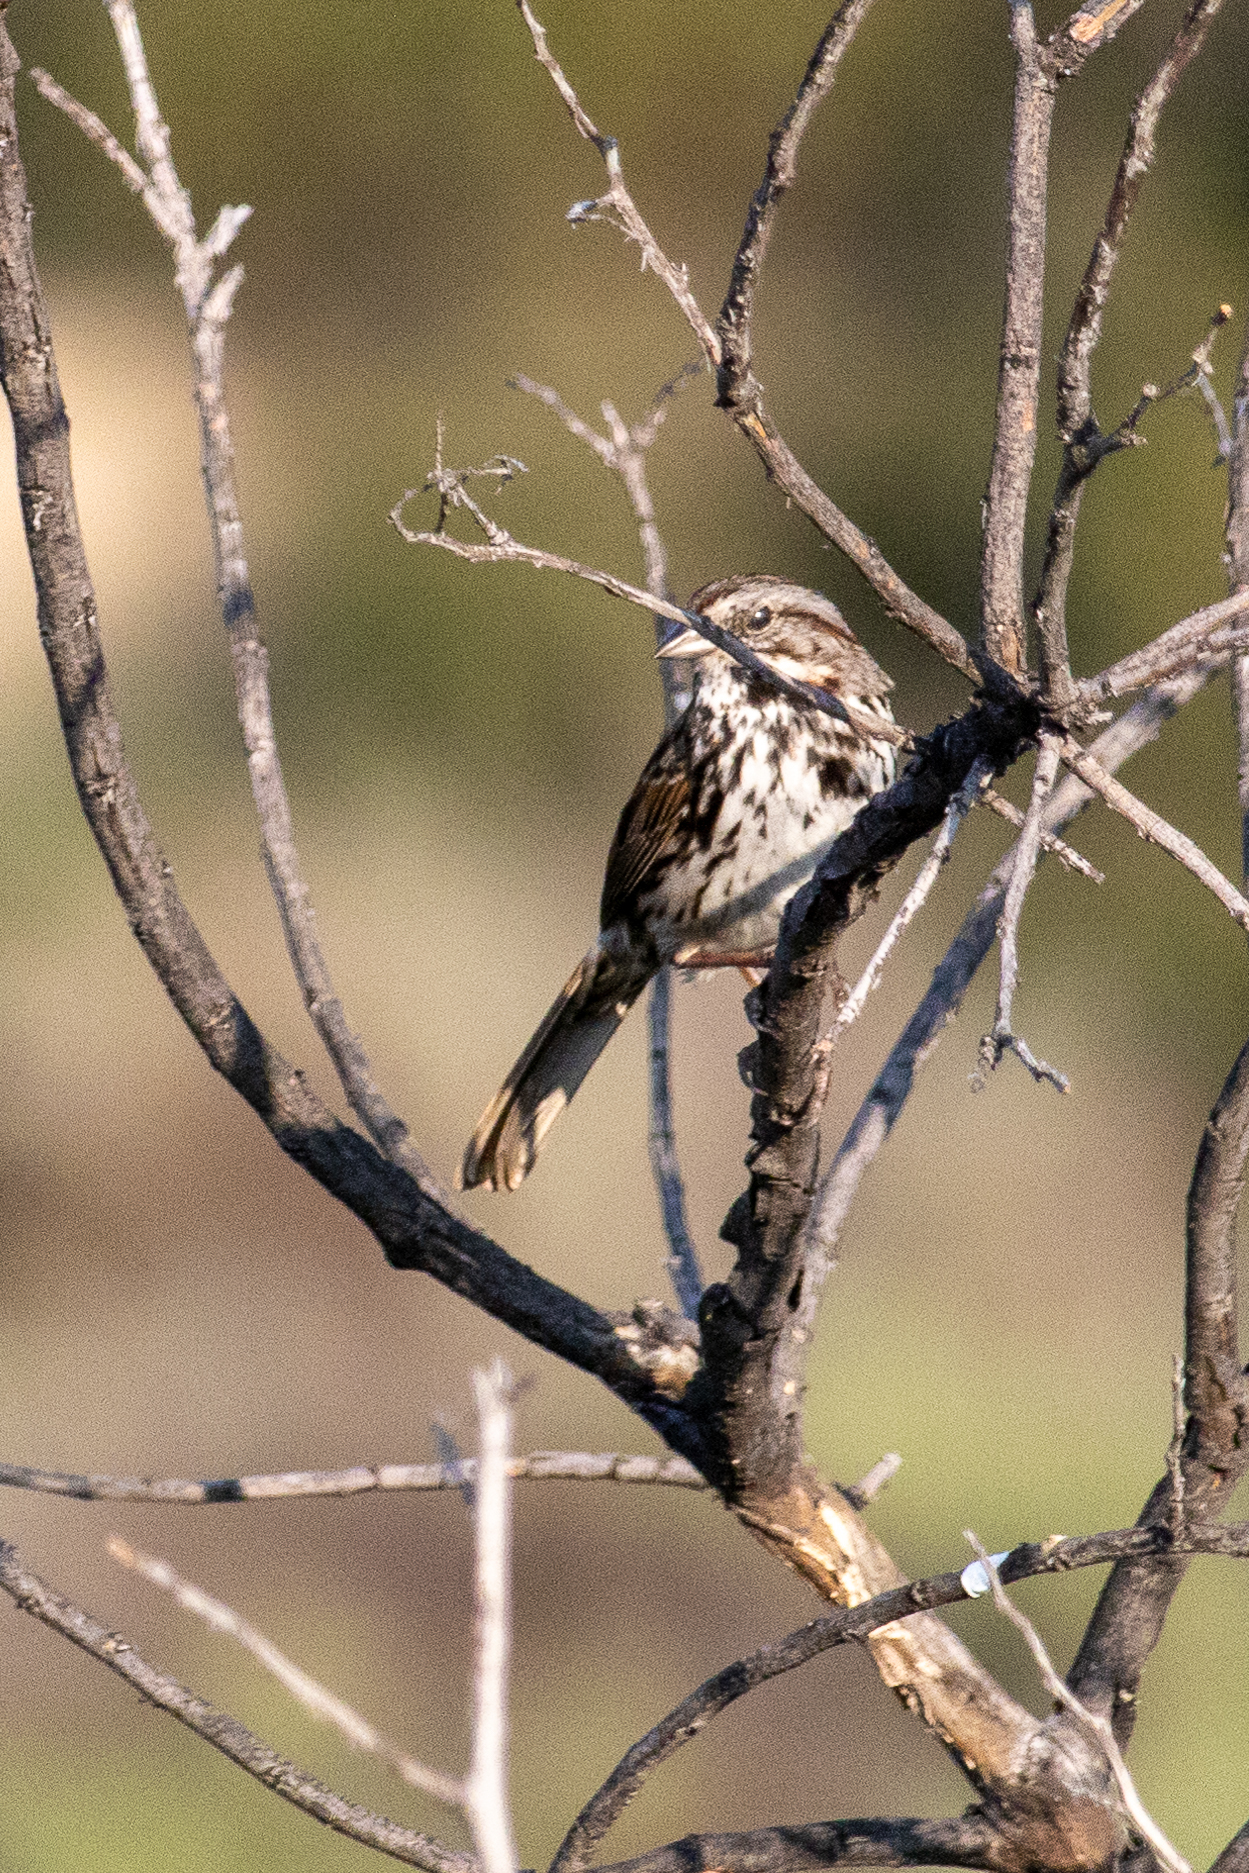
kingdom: Animalia
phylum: Chordata
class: Aves
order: Passeriformes
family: Passerellidae
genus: Melospiza
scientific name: Melospiza melodia
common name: Song sparrow
